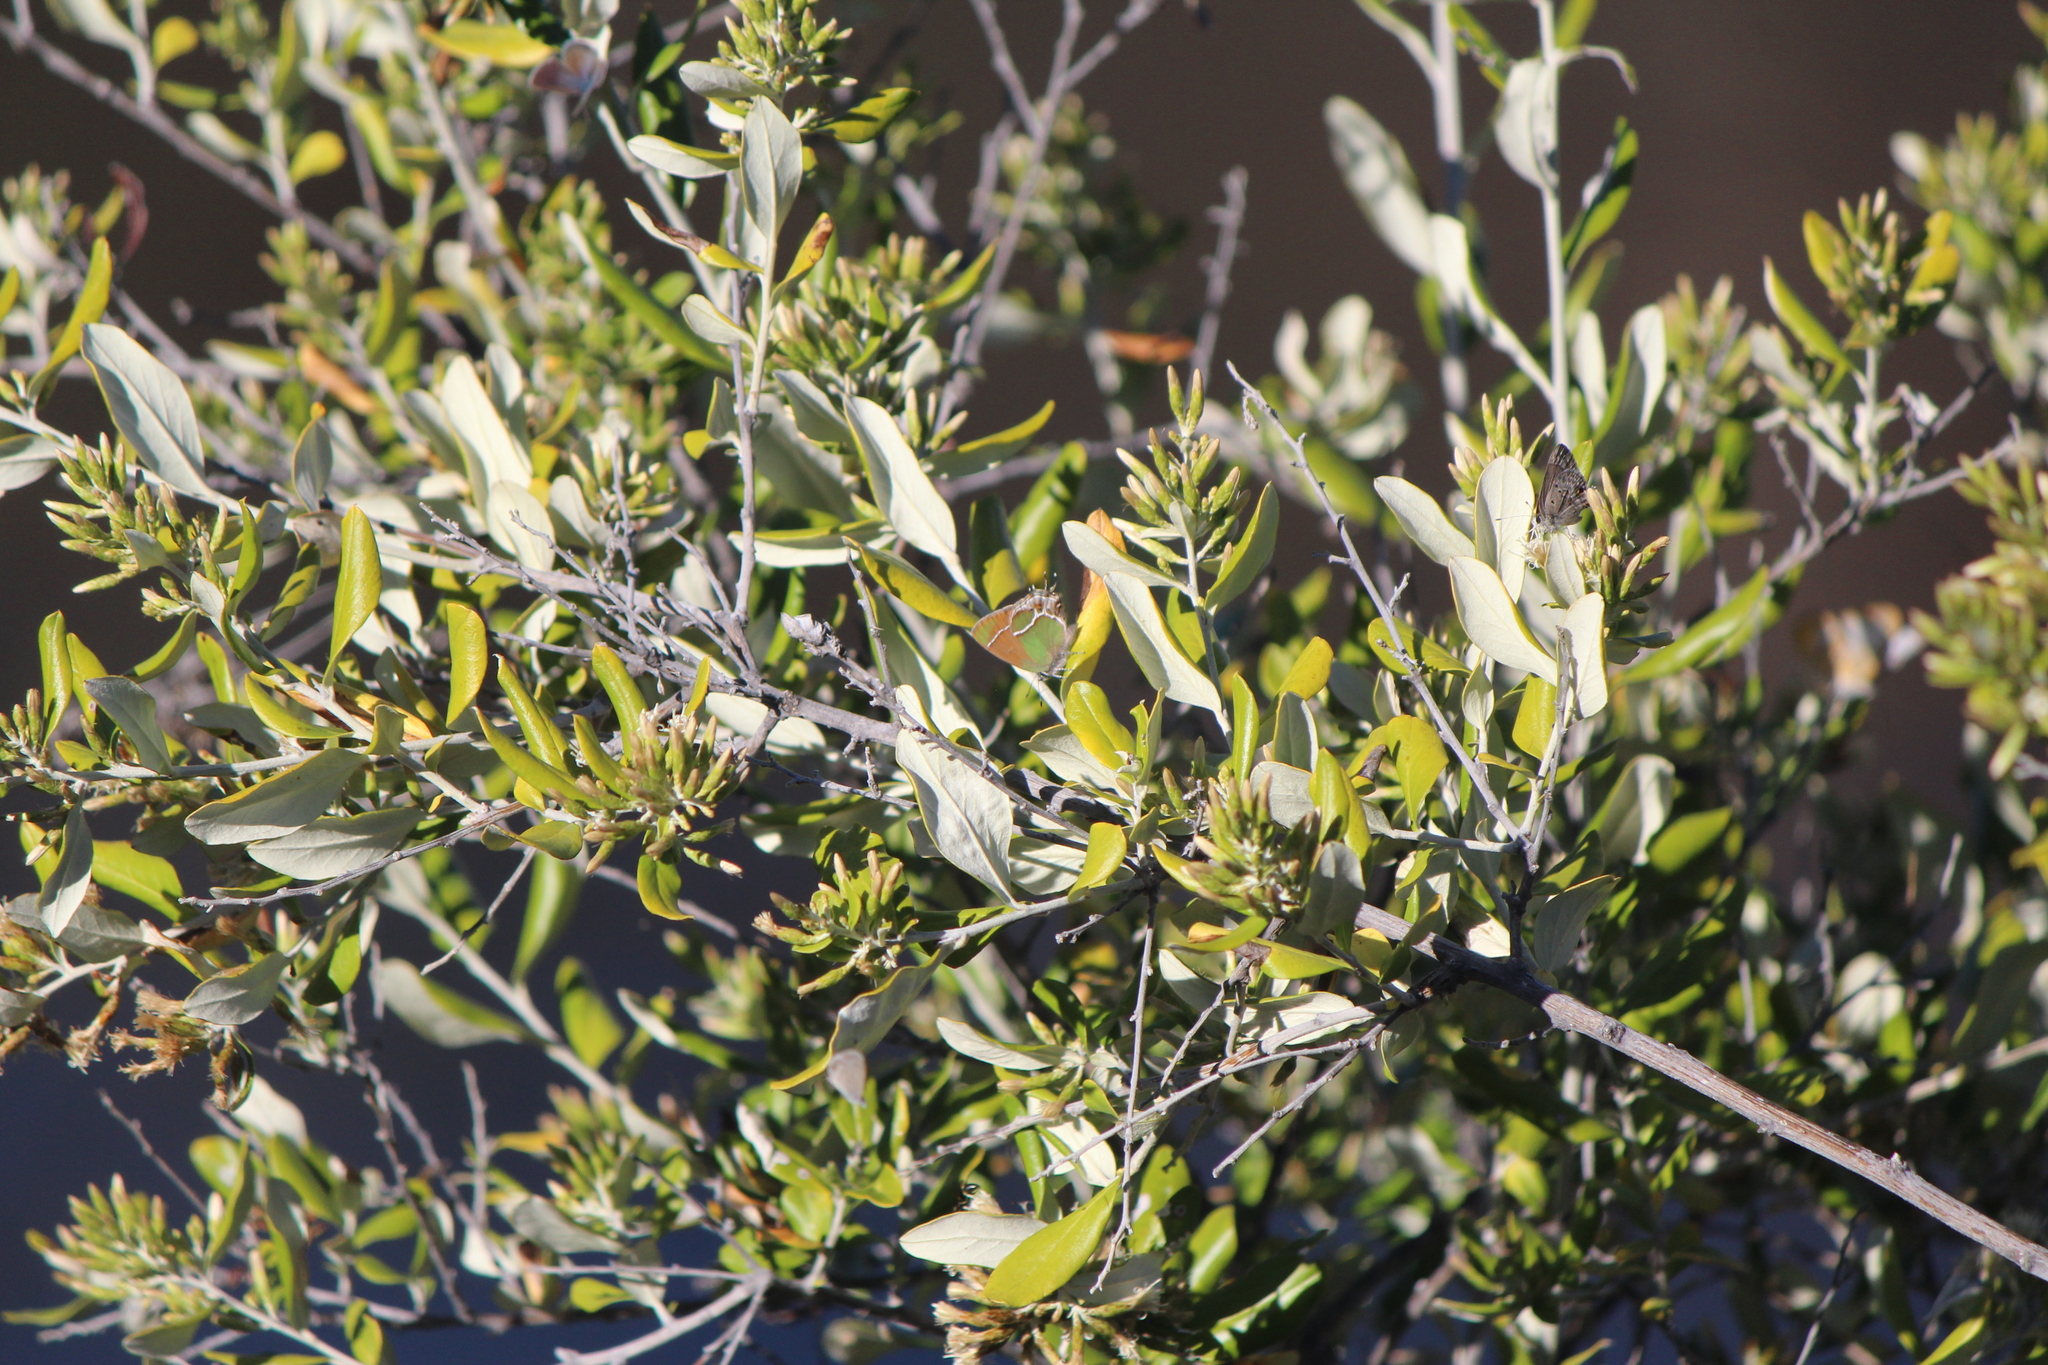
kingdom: Animalia
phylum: Arthropoda
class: Insecta
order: Lepidoptera
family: Lycaenidae
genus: Xamia
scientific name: Xamia xami
